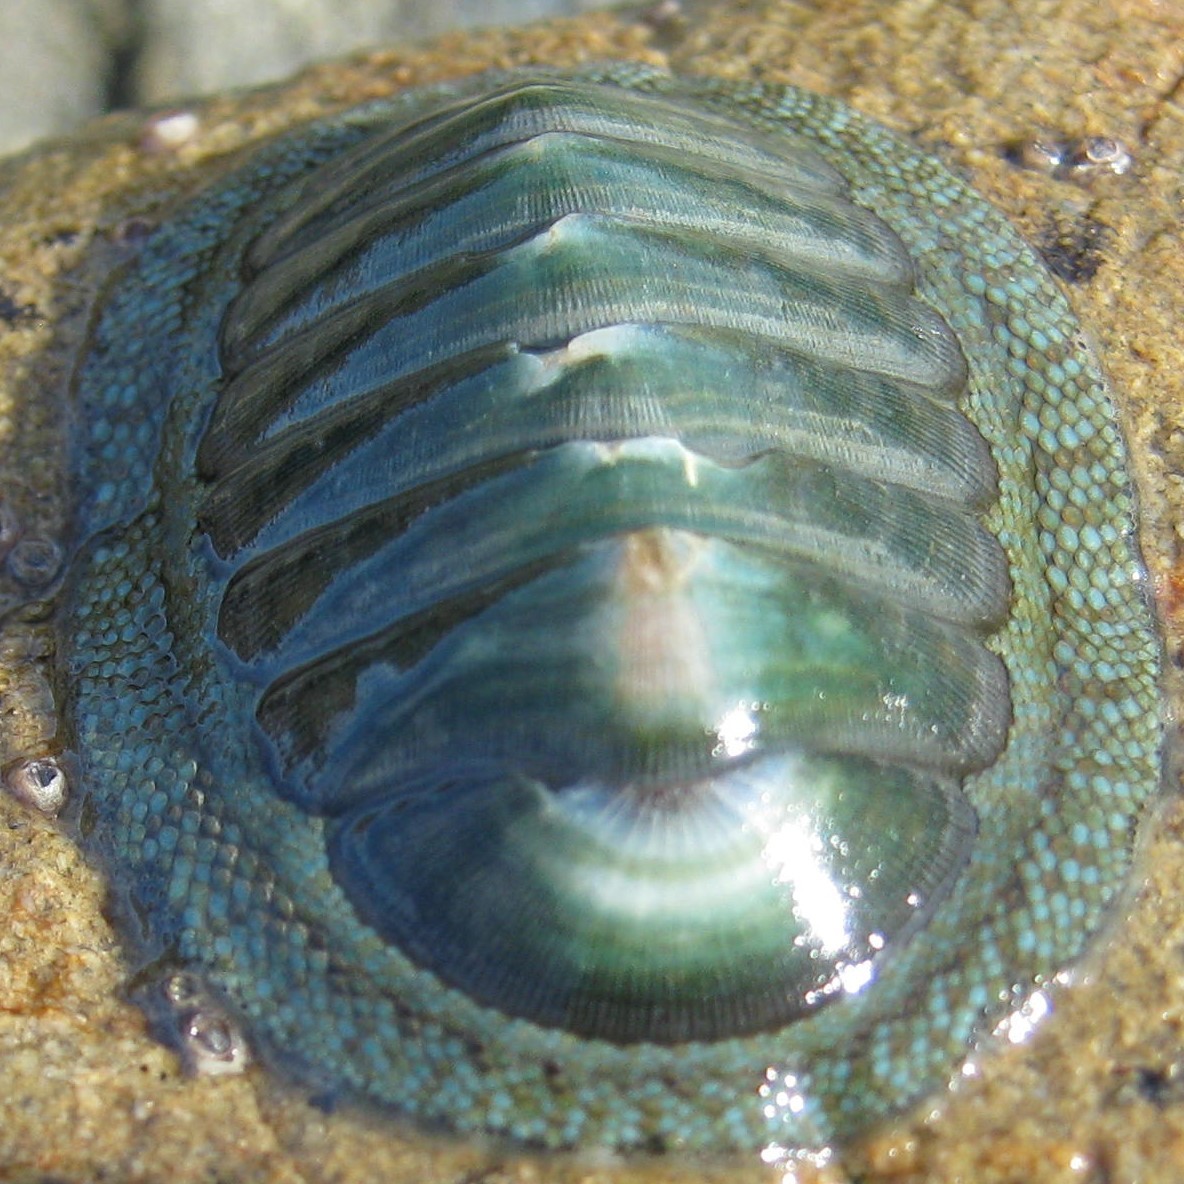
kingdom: Animalia
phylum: Mollusca
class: Polyplacophora
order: Chitonida
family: Chitonidae
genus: Chiton
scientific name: Chiton glaucus
